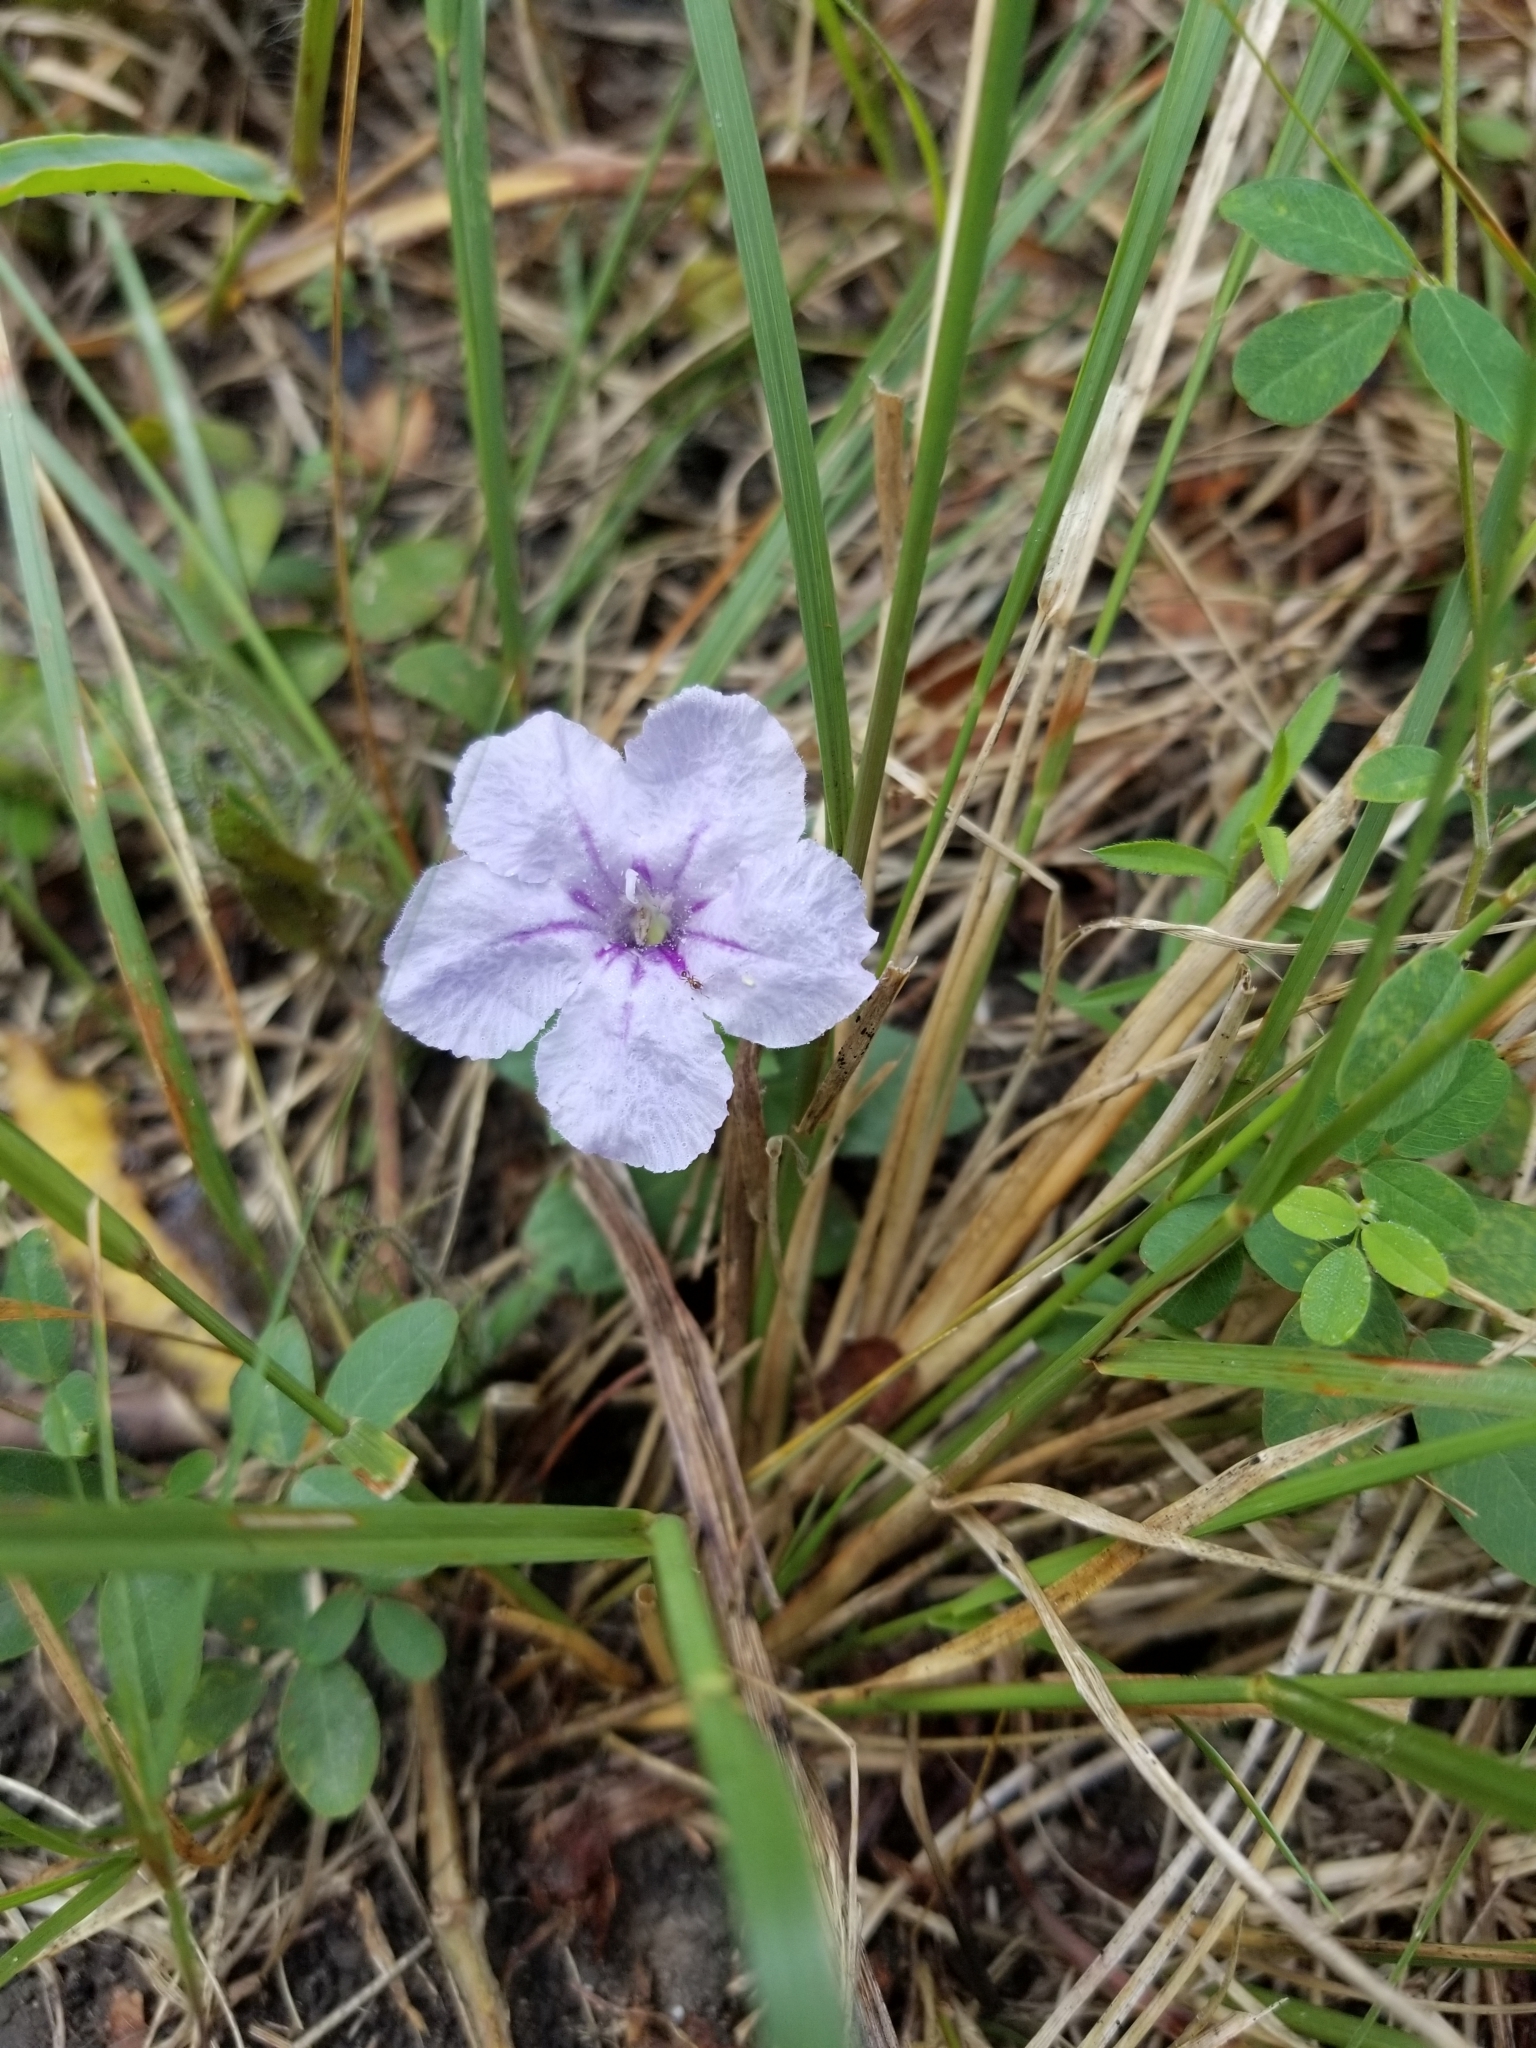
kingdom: Plantae
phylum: Tracheophyta
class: Magnoliopsida
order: Lamiales
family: Acanthaceae
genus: Ruellia
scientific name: Ruellia humilis
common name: Fringe-leaf ruellia
